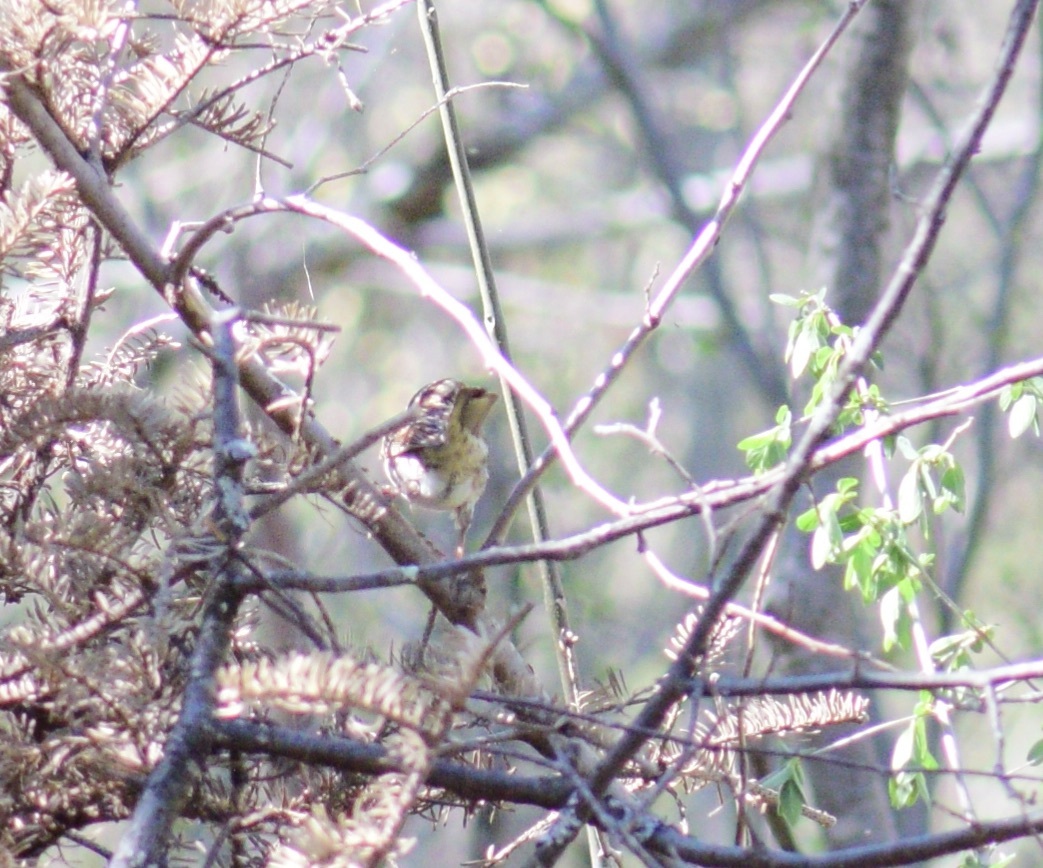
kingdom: Animalia
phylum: Chordata
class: Aves
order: Passeriformes
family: Passerellidae
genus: Melospiza
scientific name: Melospiza melodia
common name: Song sparrow
